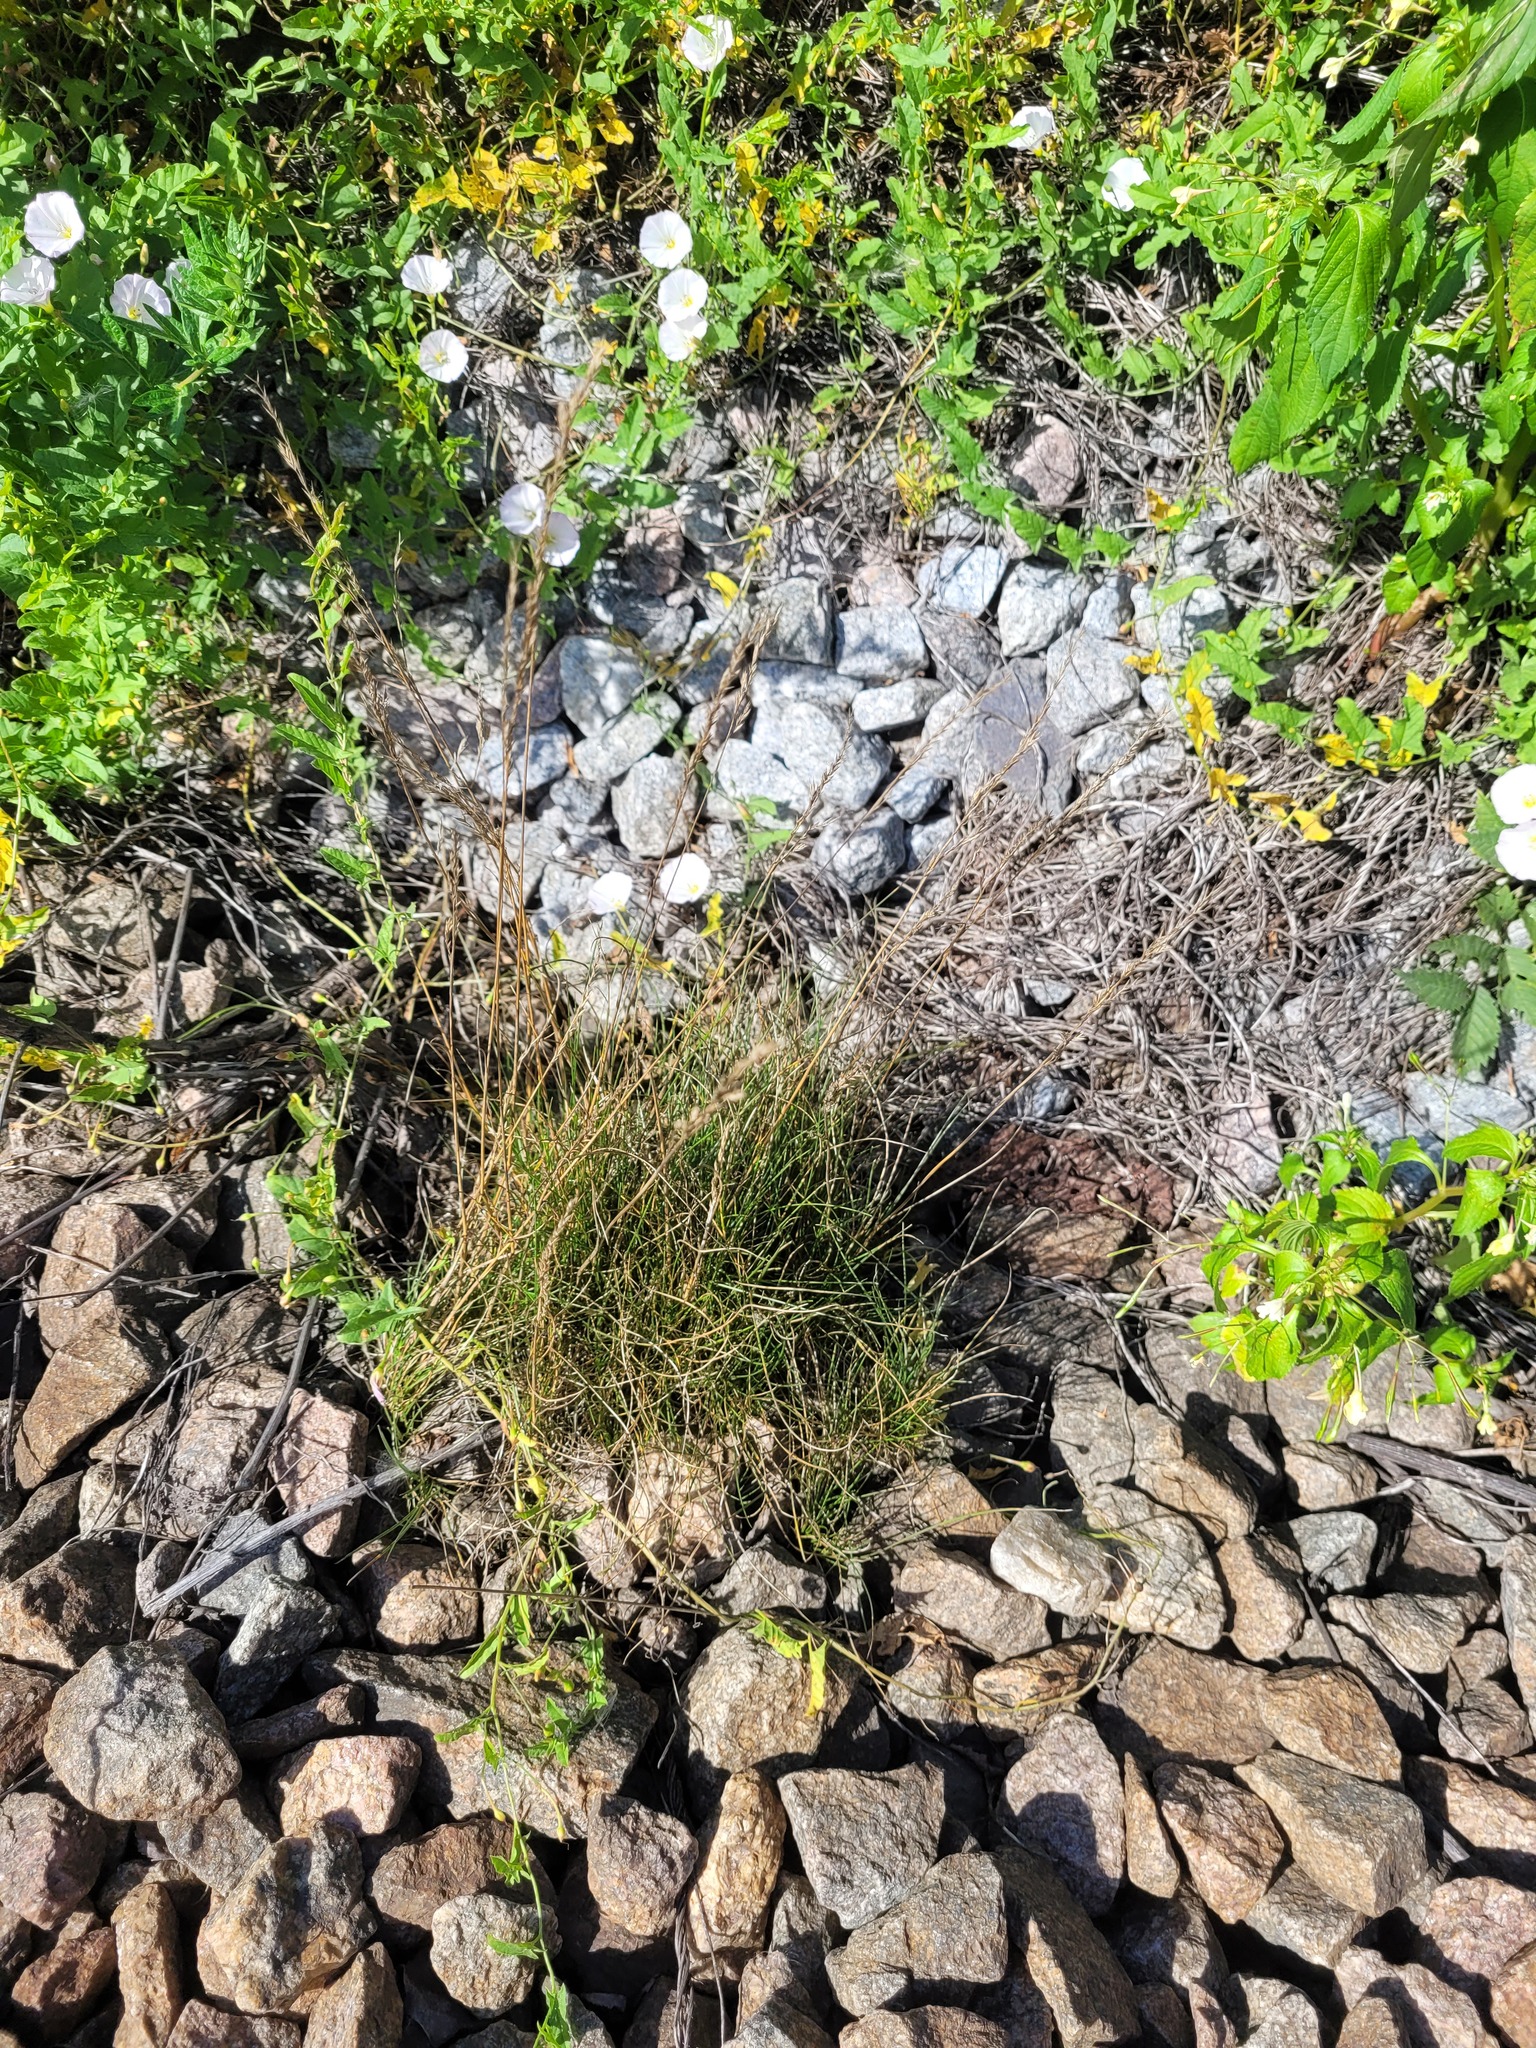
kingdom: Plantae
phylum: Tracheophyta
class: Liliopsida
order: Poales
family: Poaceae
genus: Festuca
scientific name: Festuca rubra
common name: Red fescue
